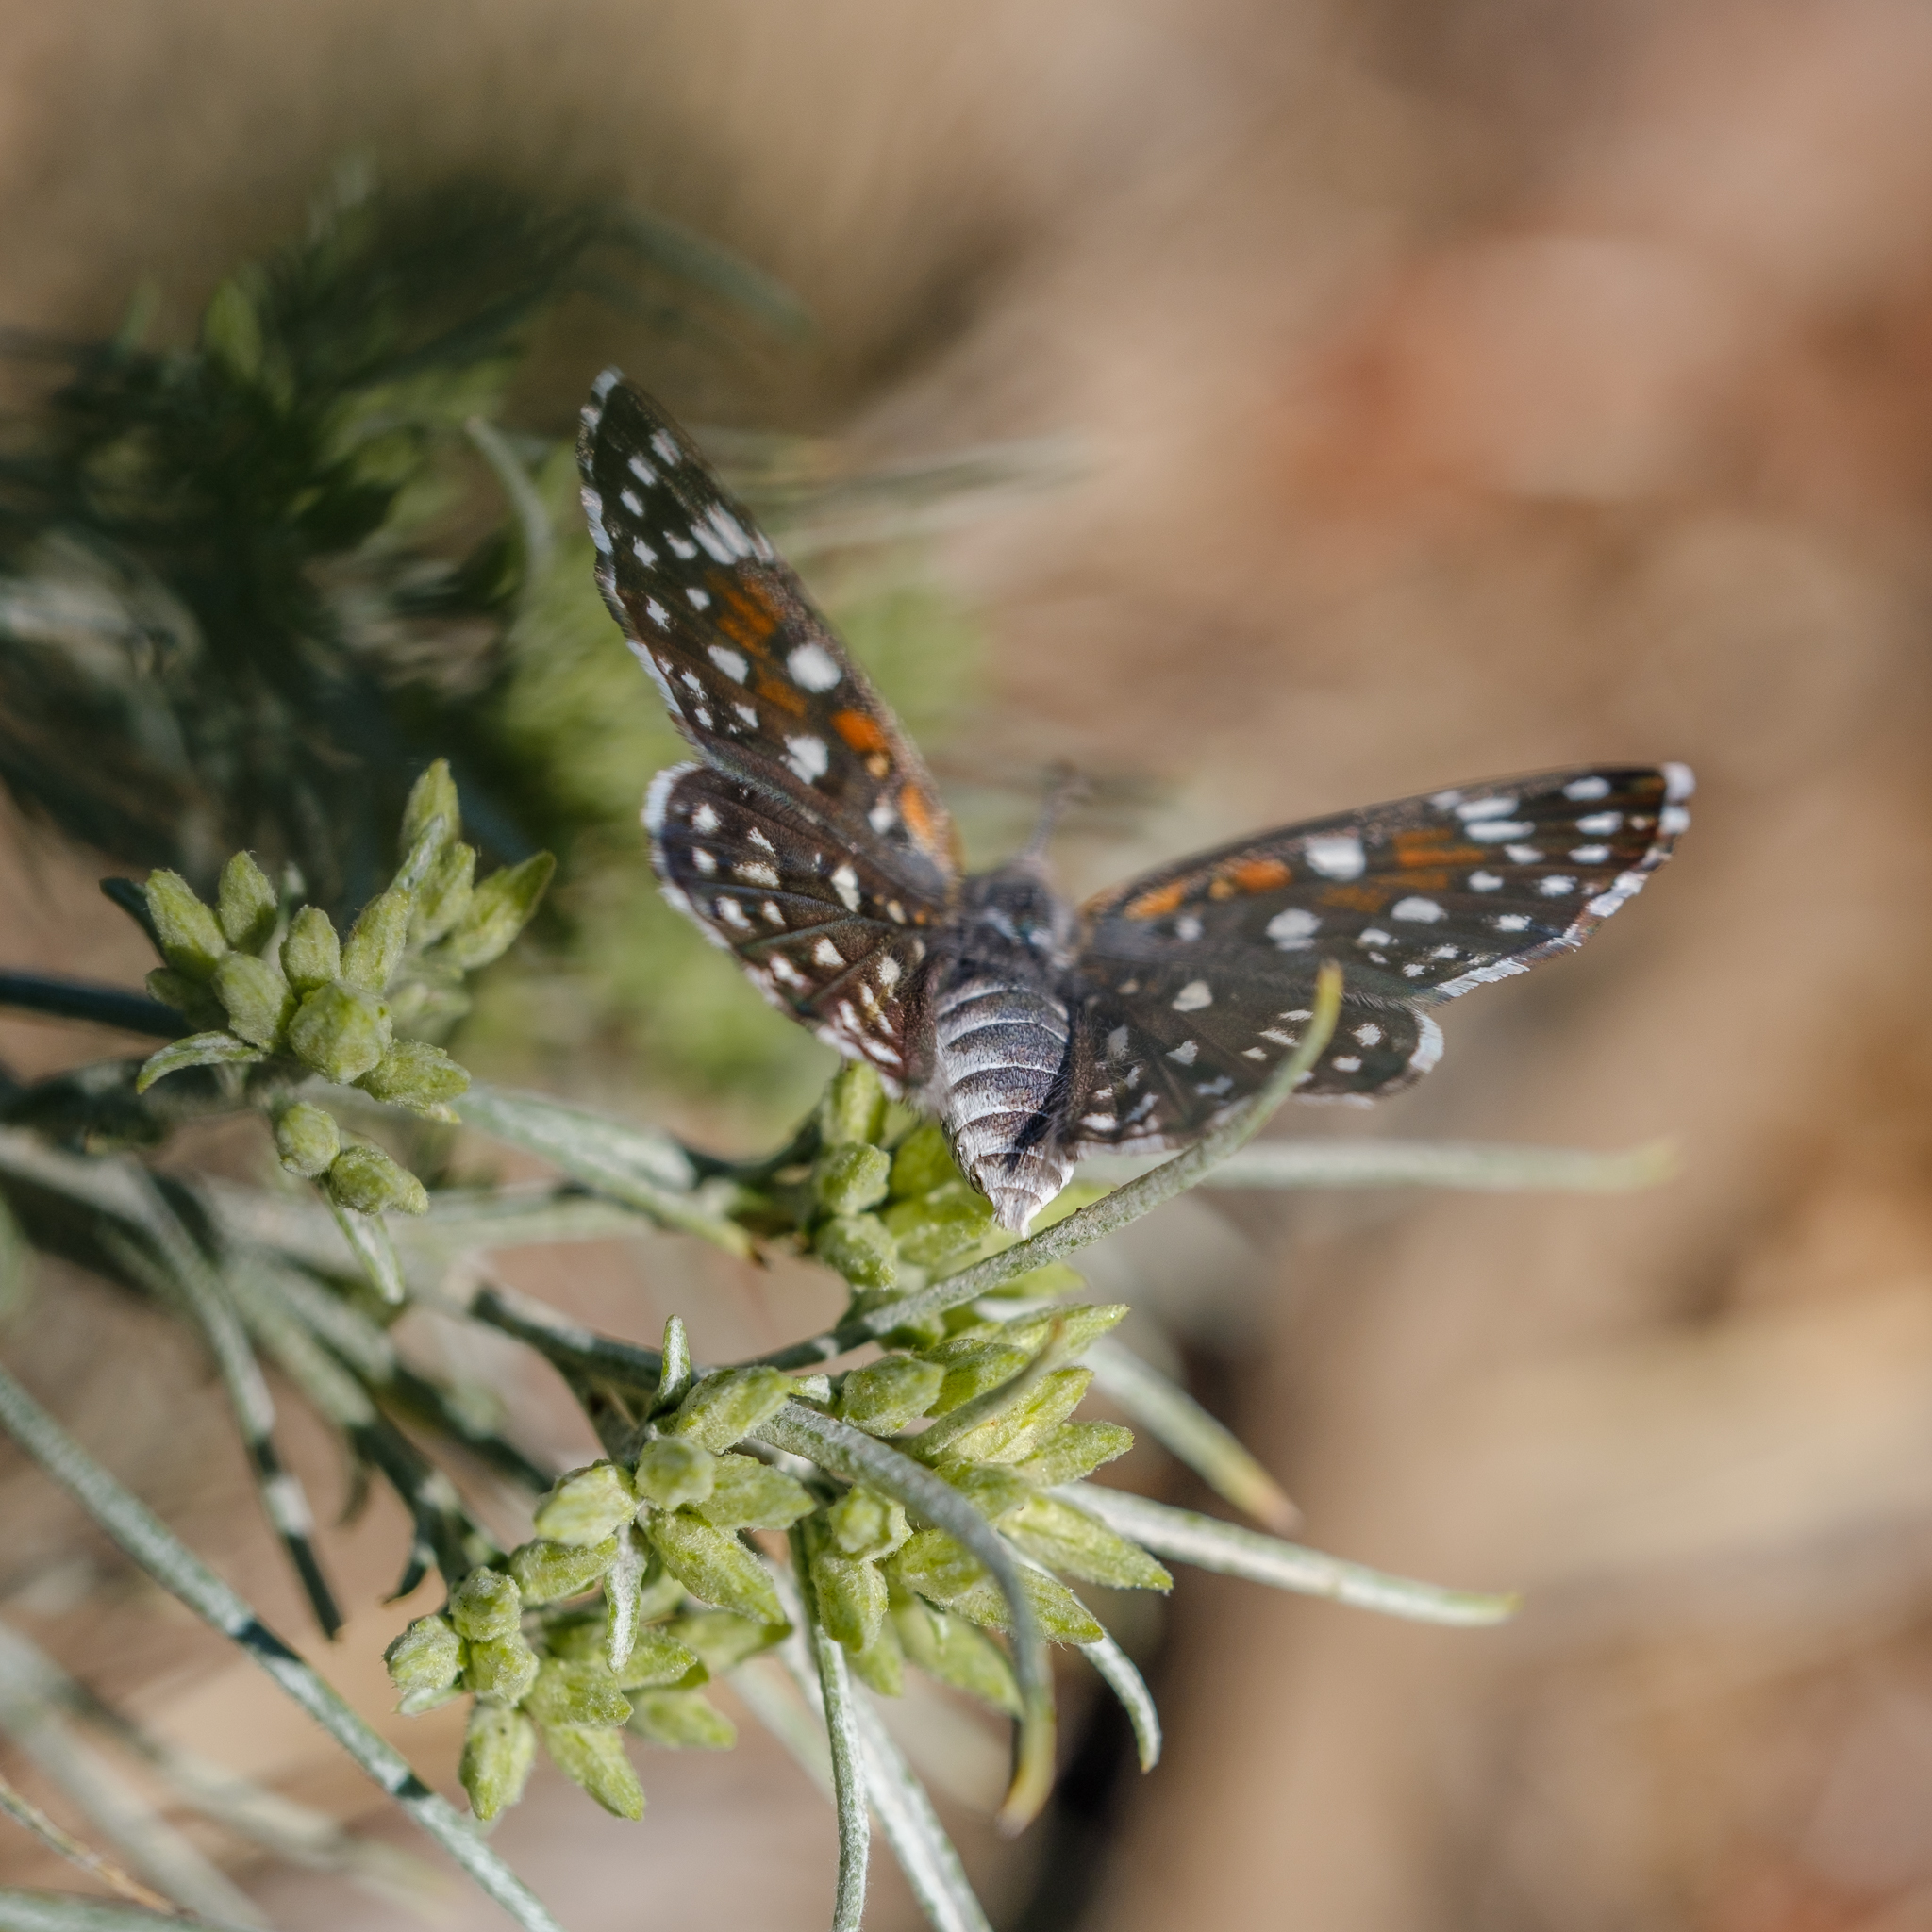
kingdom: Animalia
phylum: Arthropoda
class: Insecta
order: Lepidoptera
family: Riodinidae
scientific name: Riodinidae
